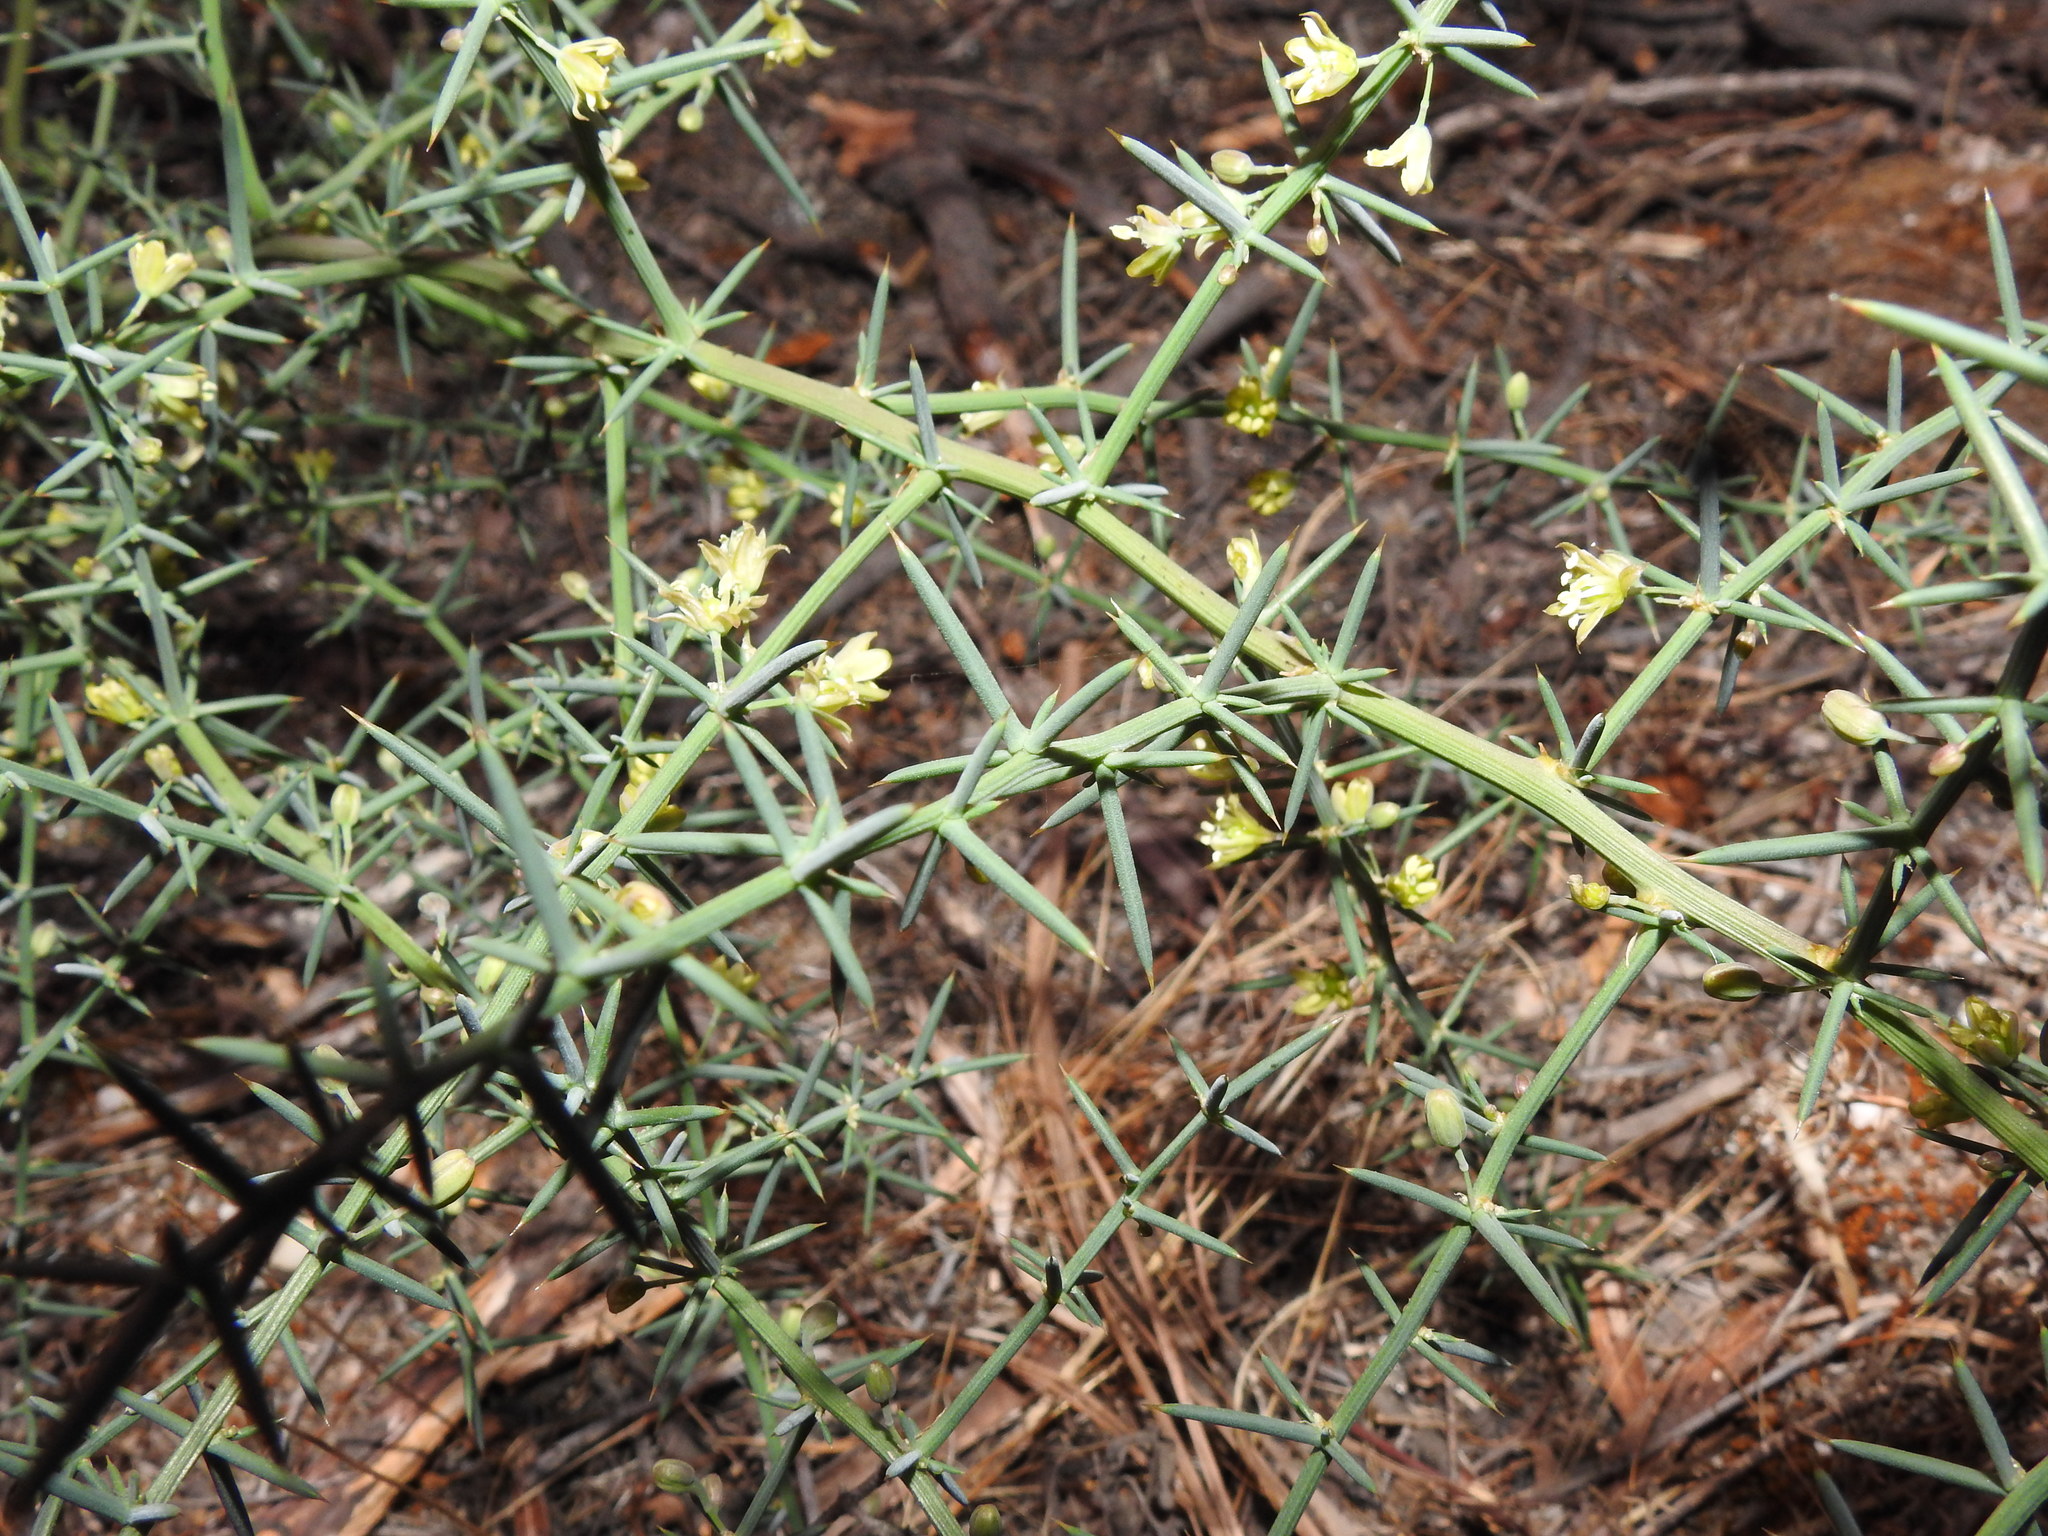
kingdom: Plantae
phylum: Tracheophyta
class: Liliopsida
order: Asparagales
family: Asparagaceae
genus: Asparagus
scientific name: Asparagus aphyllus
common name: Mediterranean asparagus
